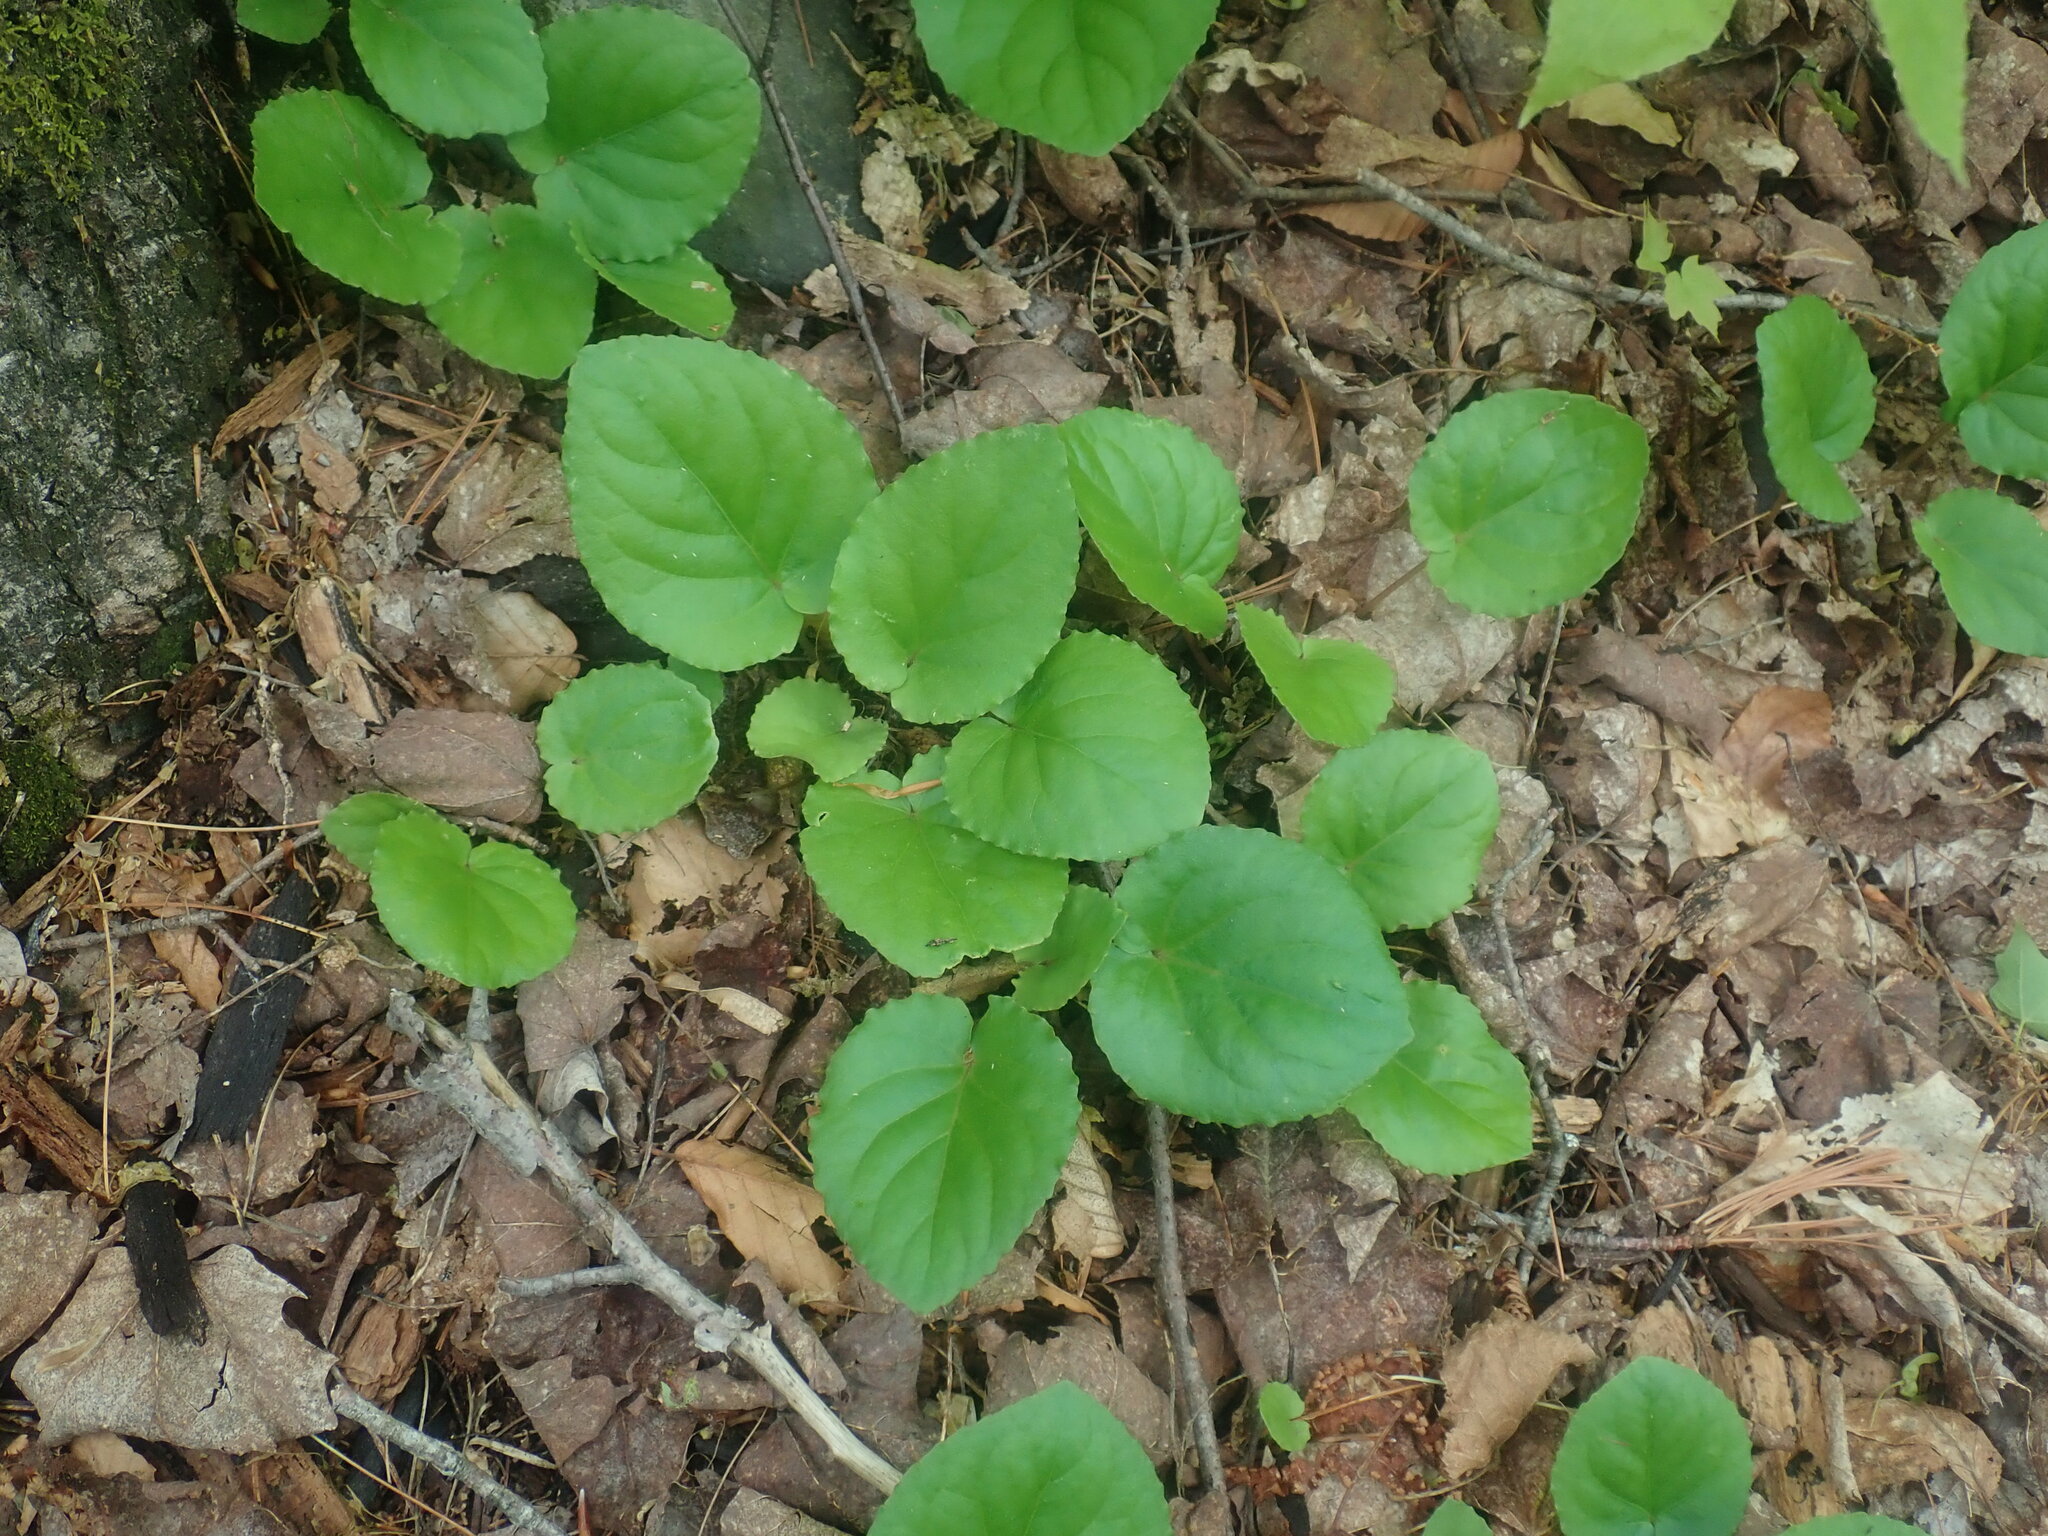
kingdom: Plantae
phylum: Tracheophyta
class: Magnoliopsida
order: Malpighiales
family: Violaceae
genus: Viola
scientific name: Viola rotundifolia
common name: Early yellow violet
